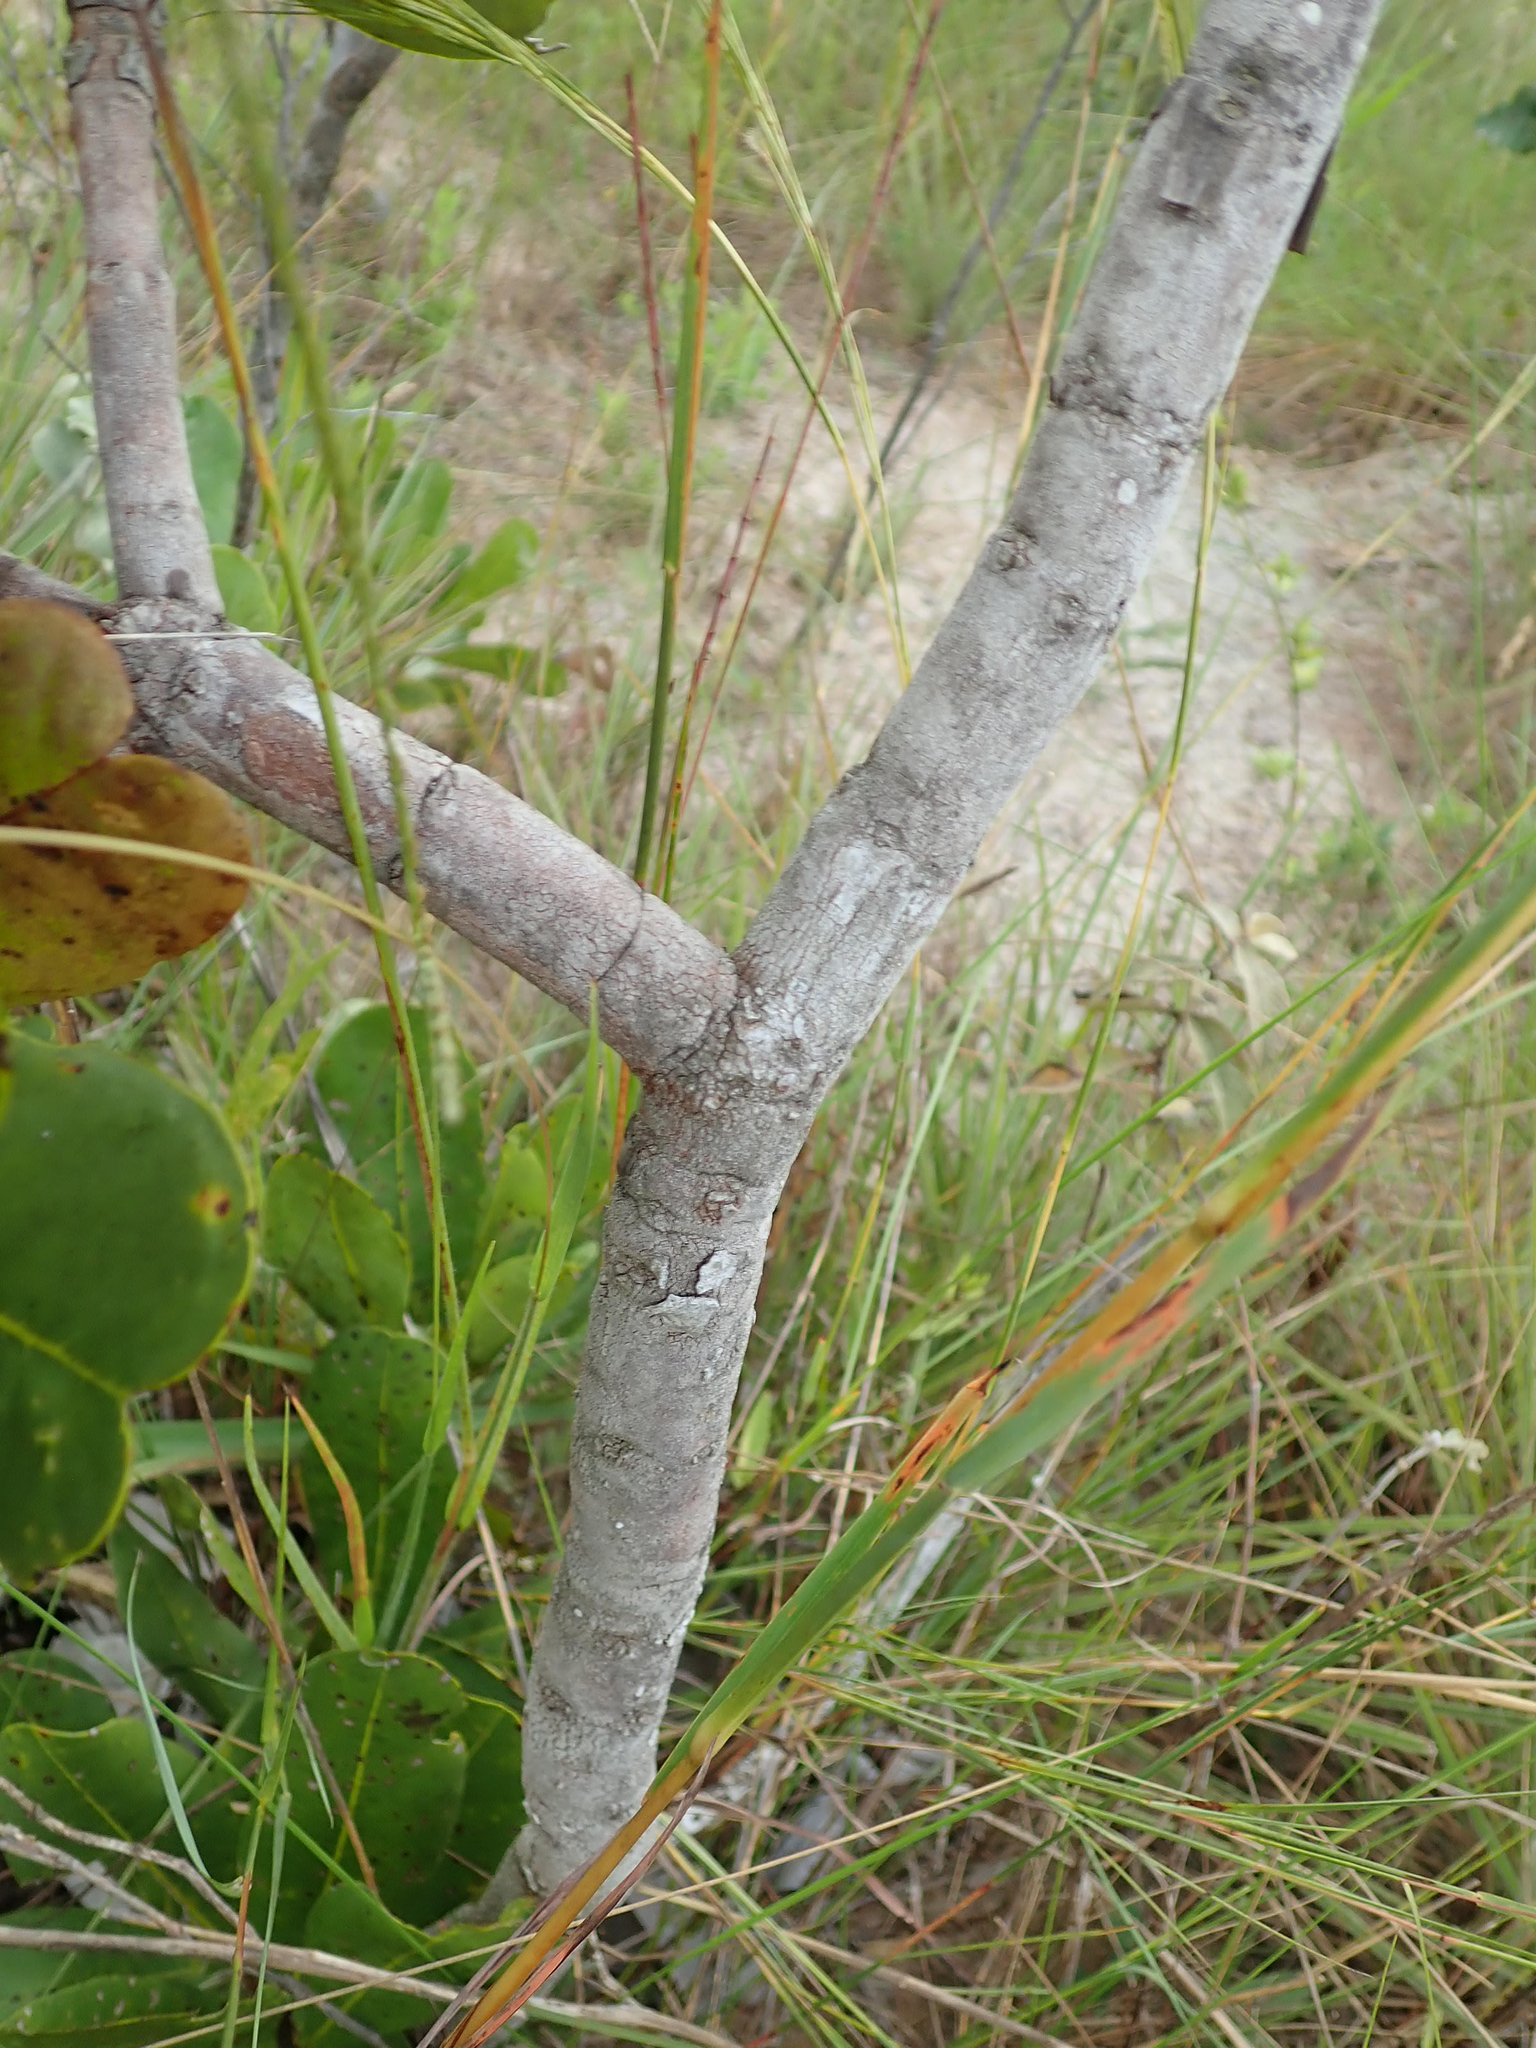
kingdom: Plantae
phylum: Tracheophyta
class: Magnoliopsida
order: Myrtales
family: Vochysiaceae
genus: Vochysia
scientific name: Vochysia pruinosa
